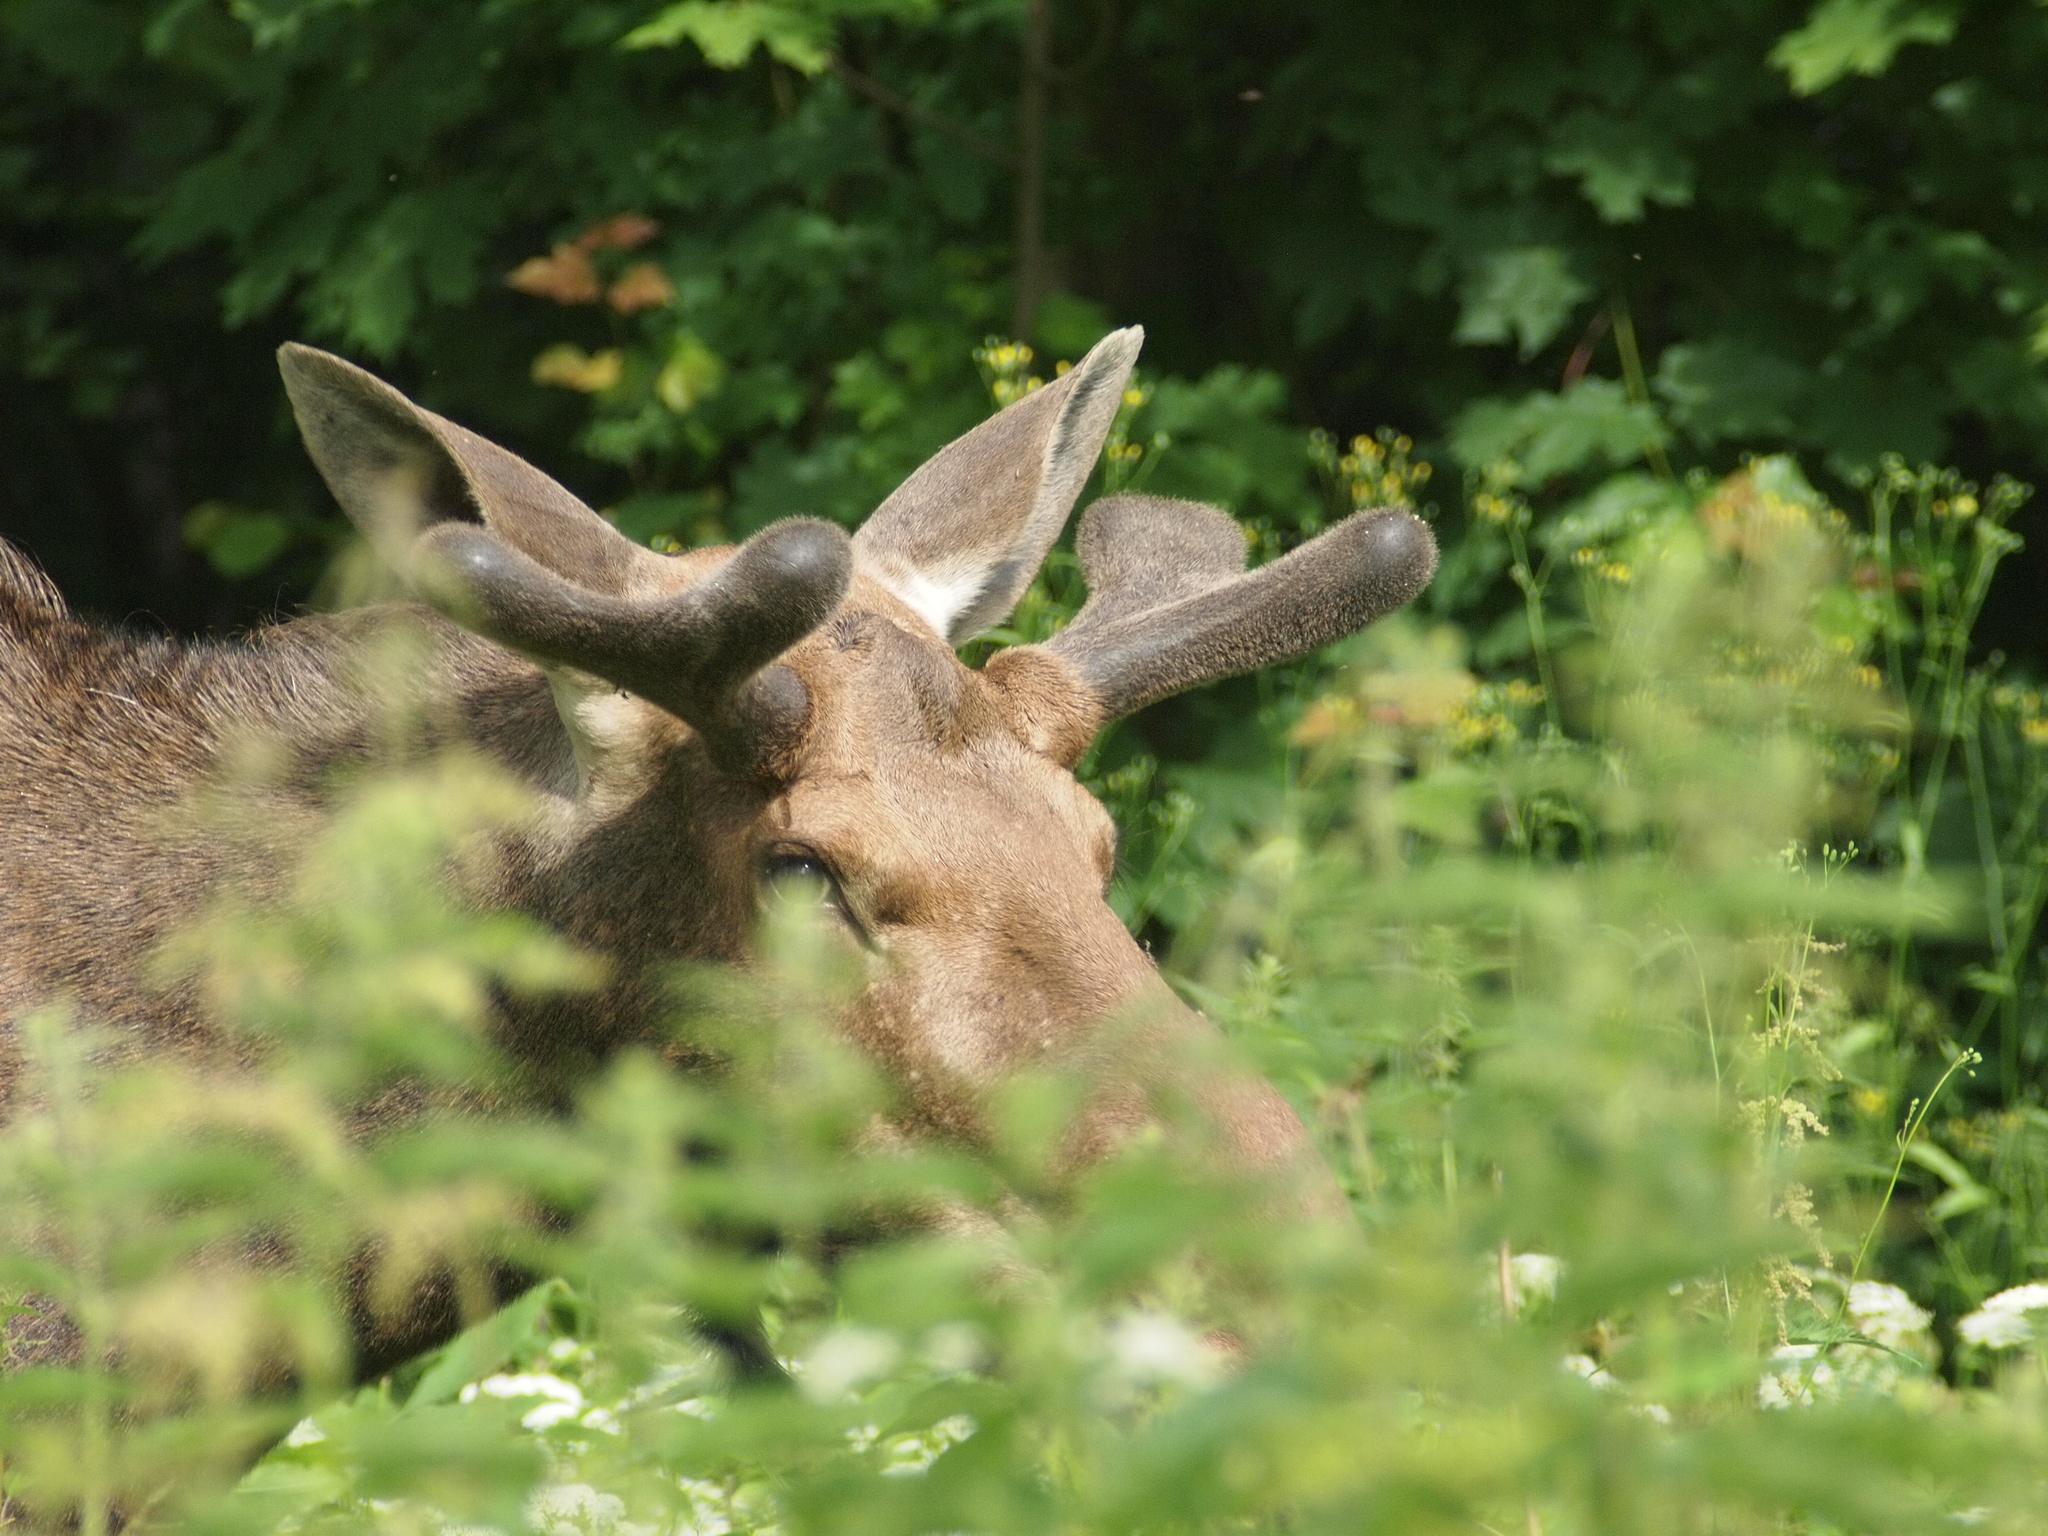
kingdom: Animalia
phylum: Chordata
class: Mammalia
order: Artiodactyla
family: Cervidae
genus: Alces
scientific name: Alces alces
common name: Moose
